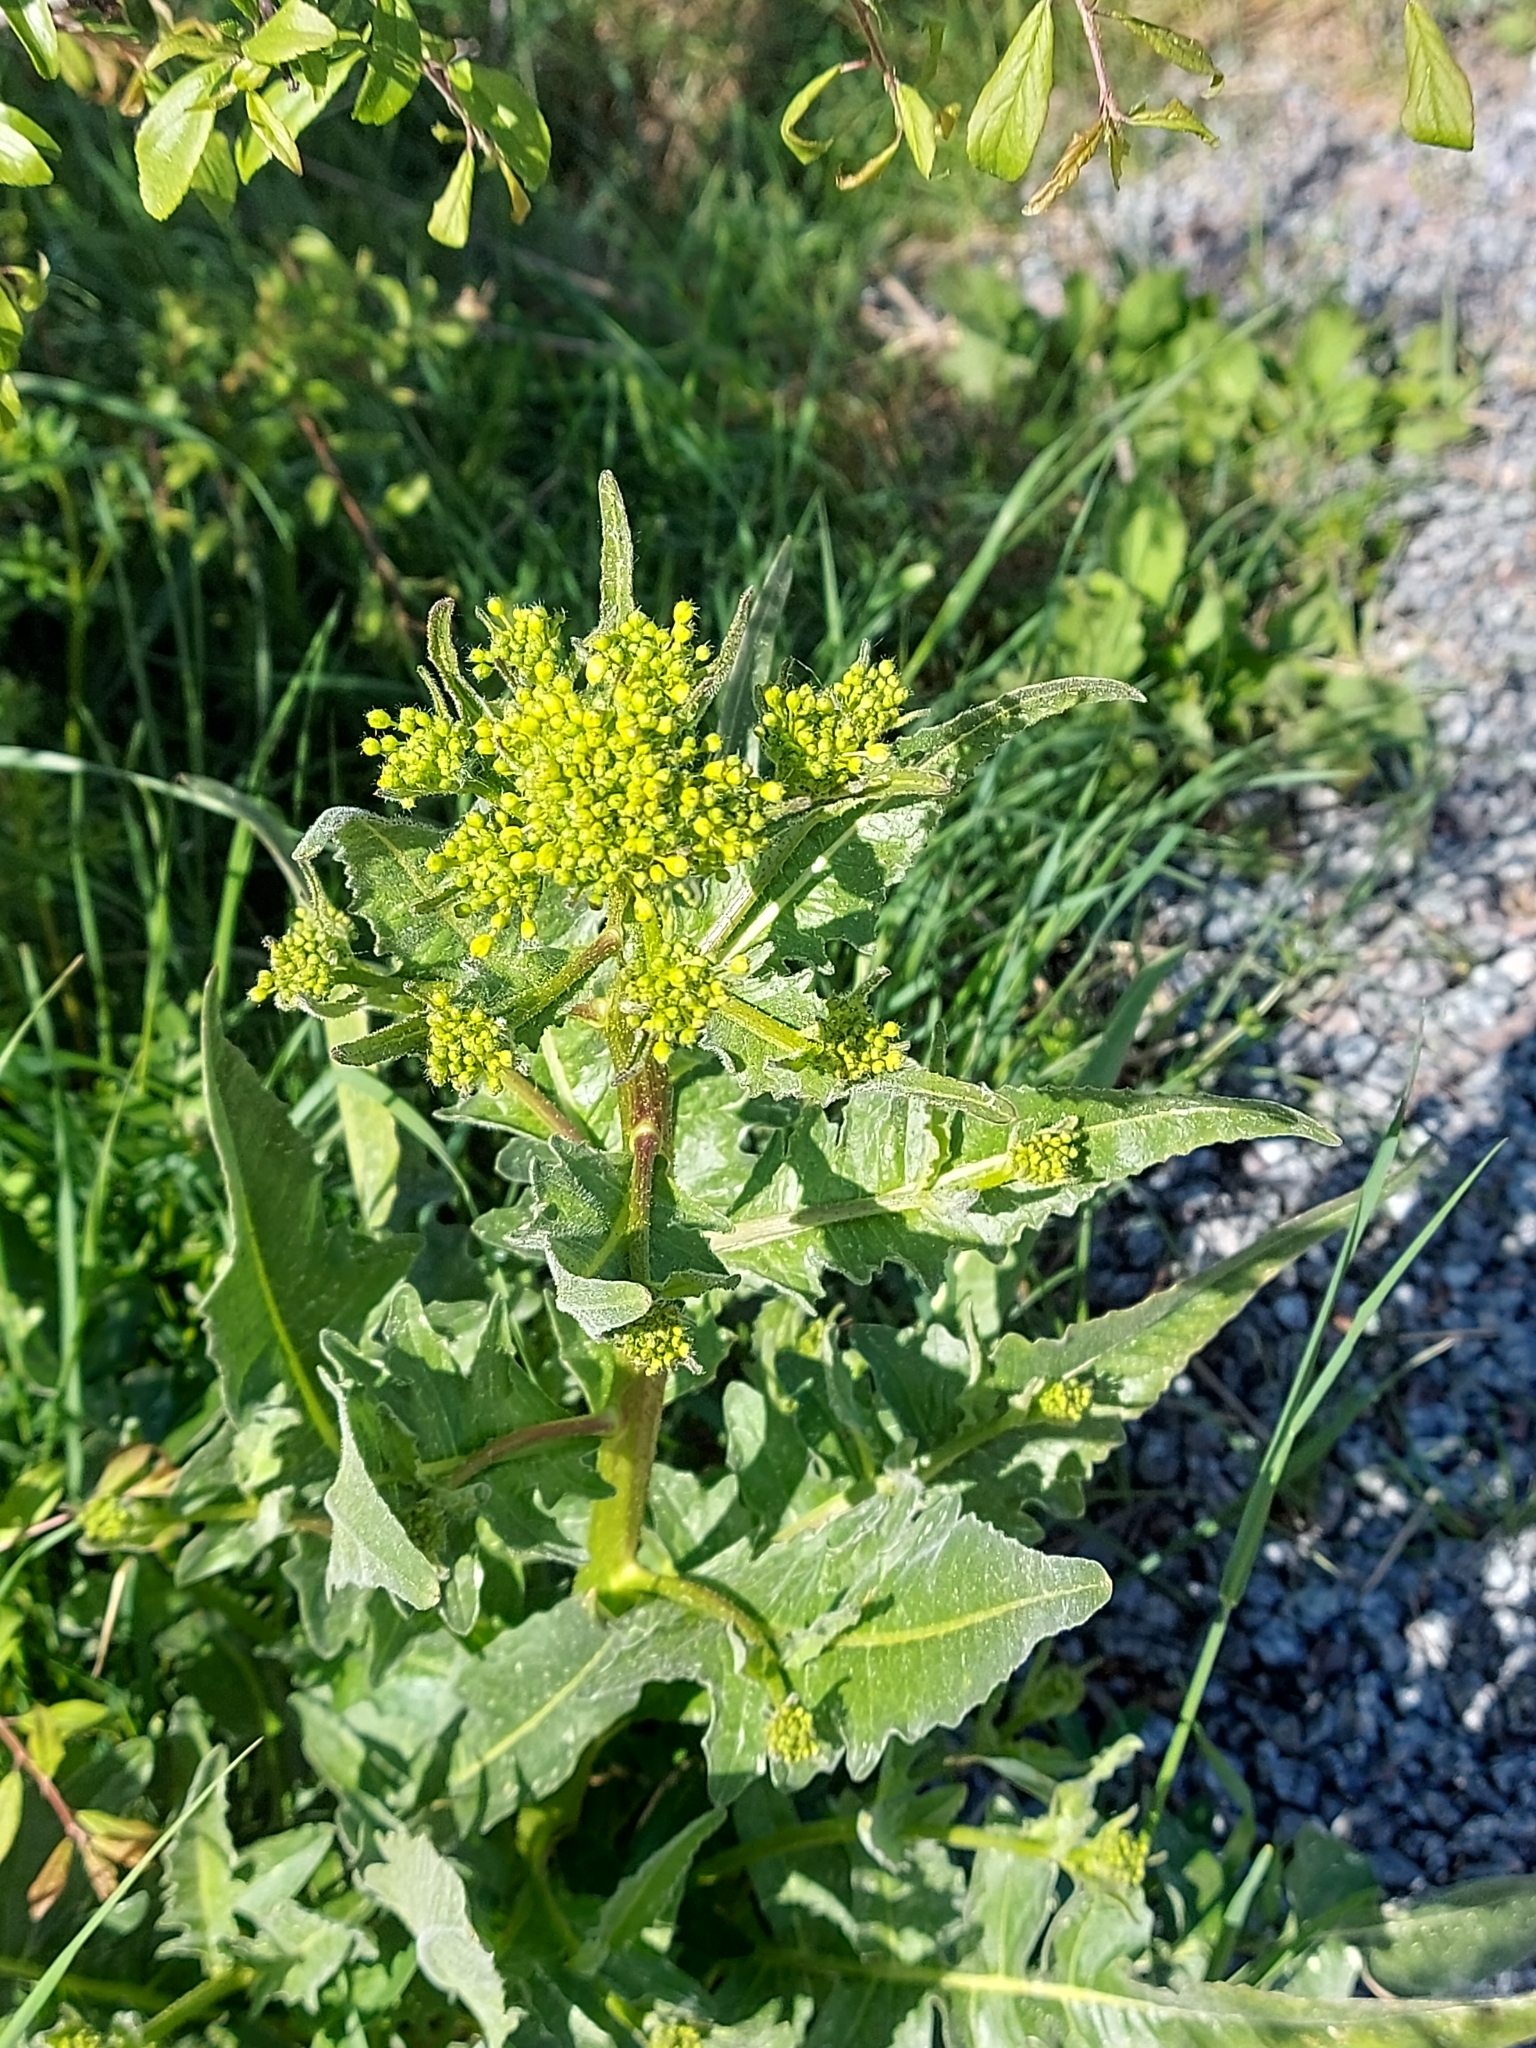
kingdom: Plantae
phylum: Tracheophyta
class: Magnoliopsida
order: Brassicales
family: Brassicaceae
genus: Bunias
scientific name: Bunias orientalis
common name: Warty-cabbage
